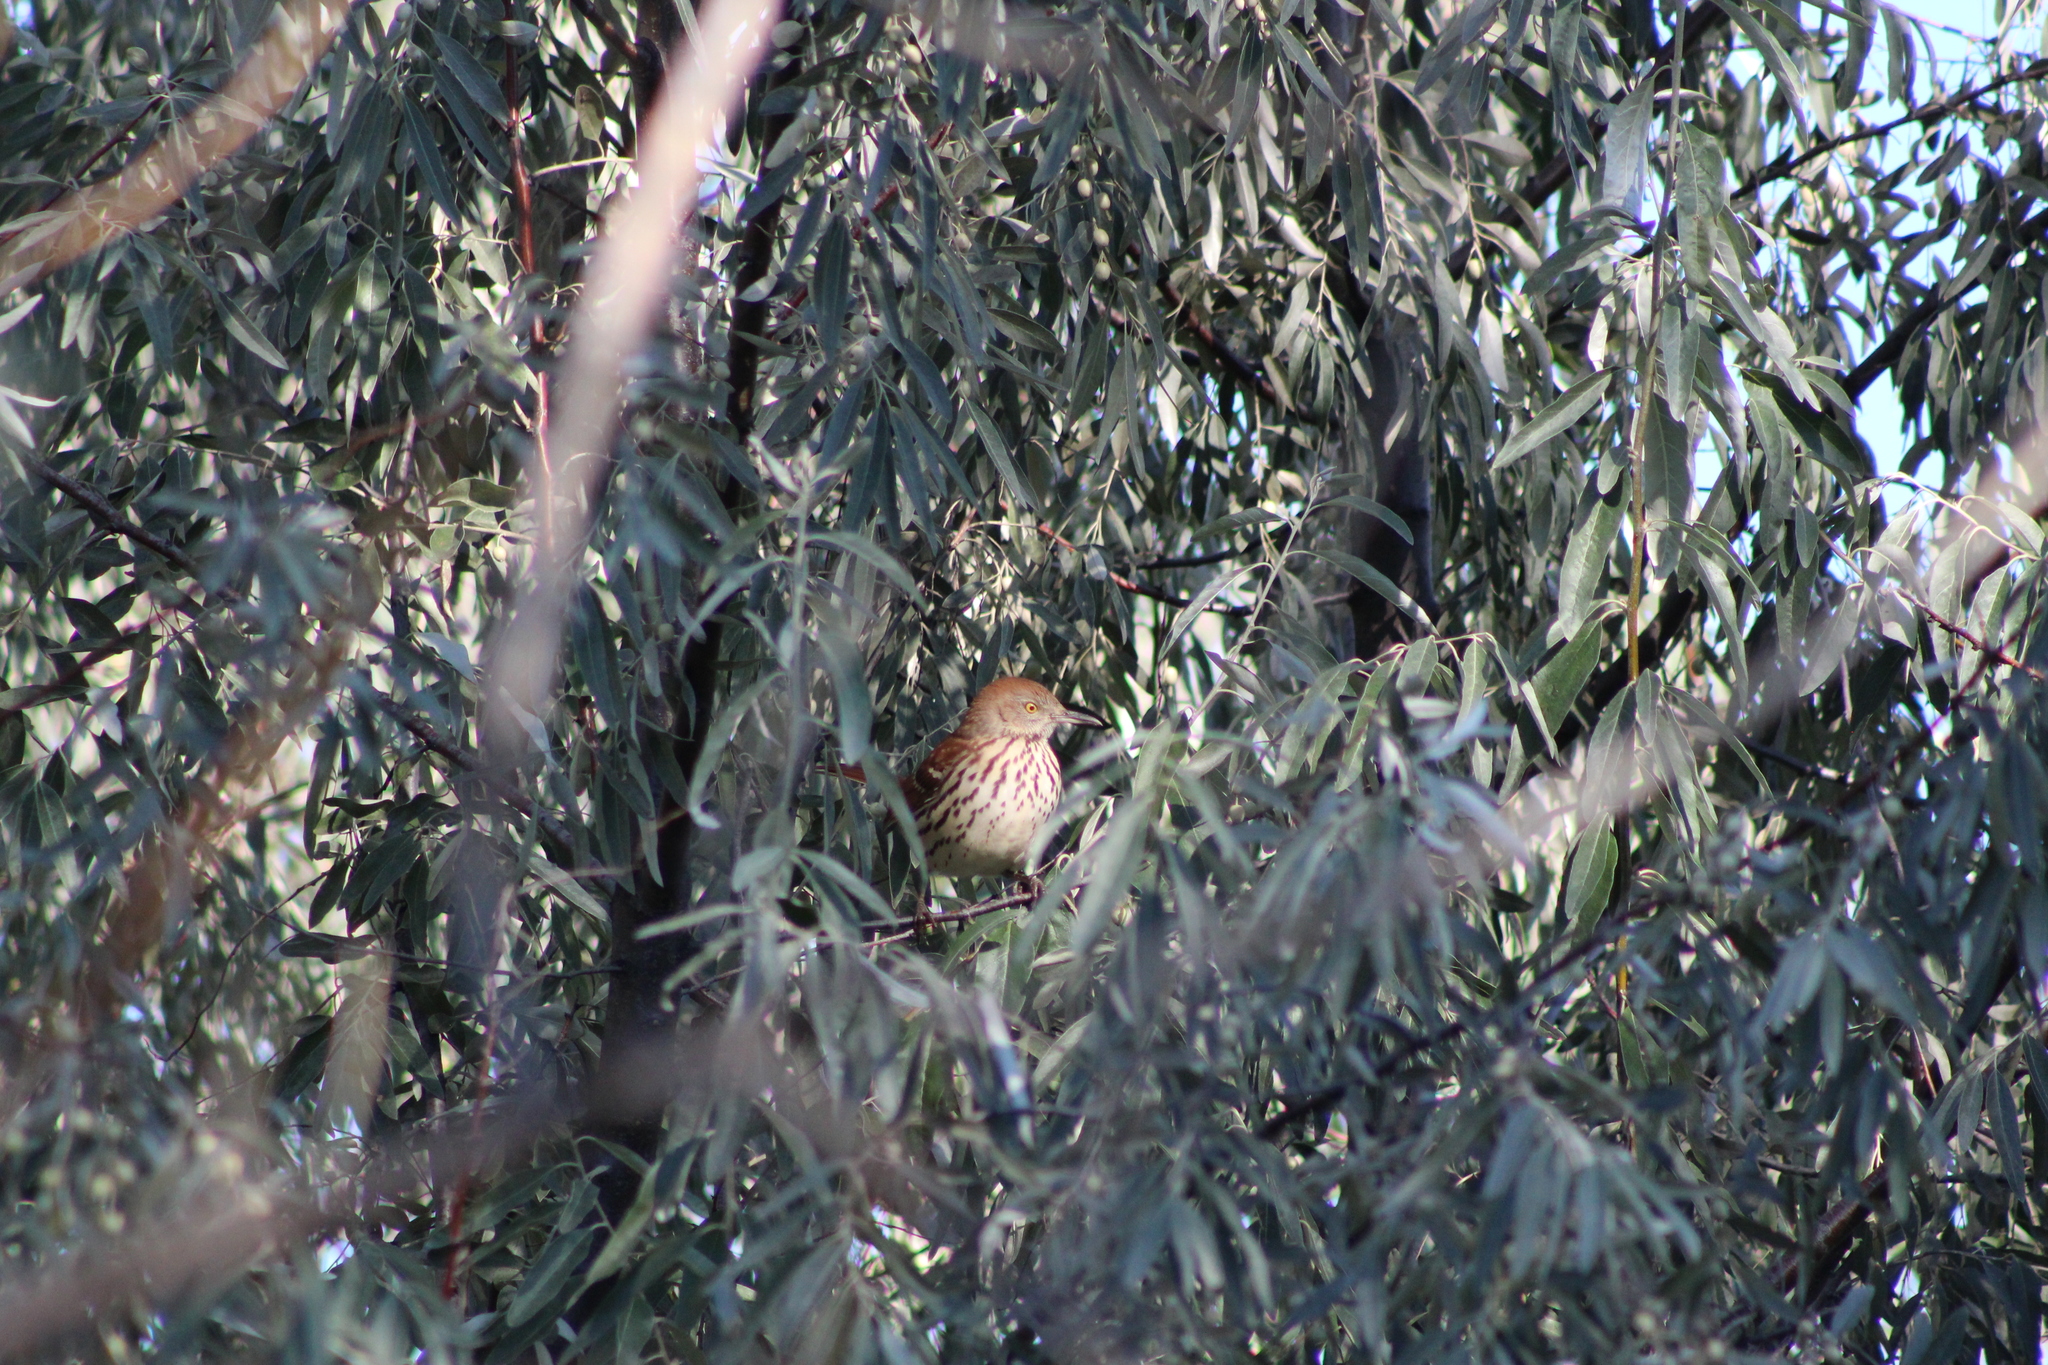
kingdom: Animalia
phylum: Chordata
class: Aves
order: Passeriformes
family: Mimidae
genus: Toxostoma
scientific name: Toxostoma rufum
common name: Brown thrasher
